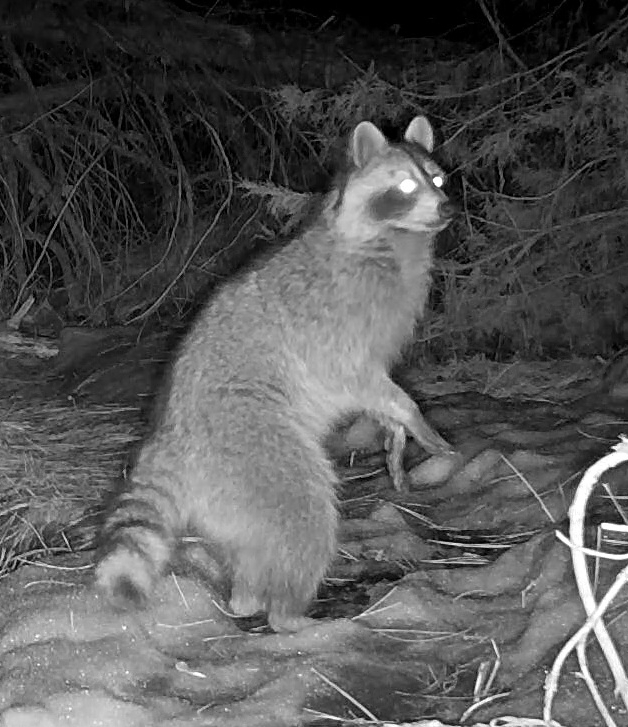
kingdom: Animalia
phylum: Chordata
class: Mammalia
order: Carnivora
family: Procyonidae
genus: Procyon
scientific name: Procyon lotor
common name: Raccoon
